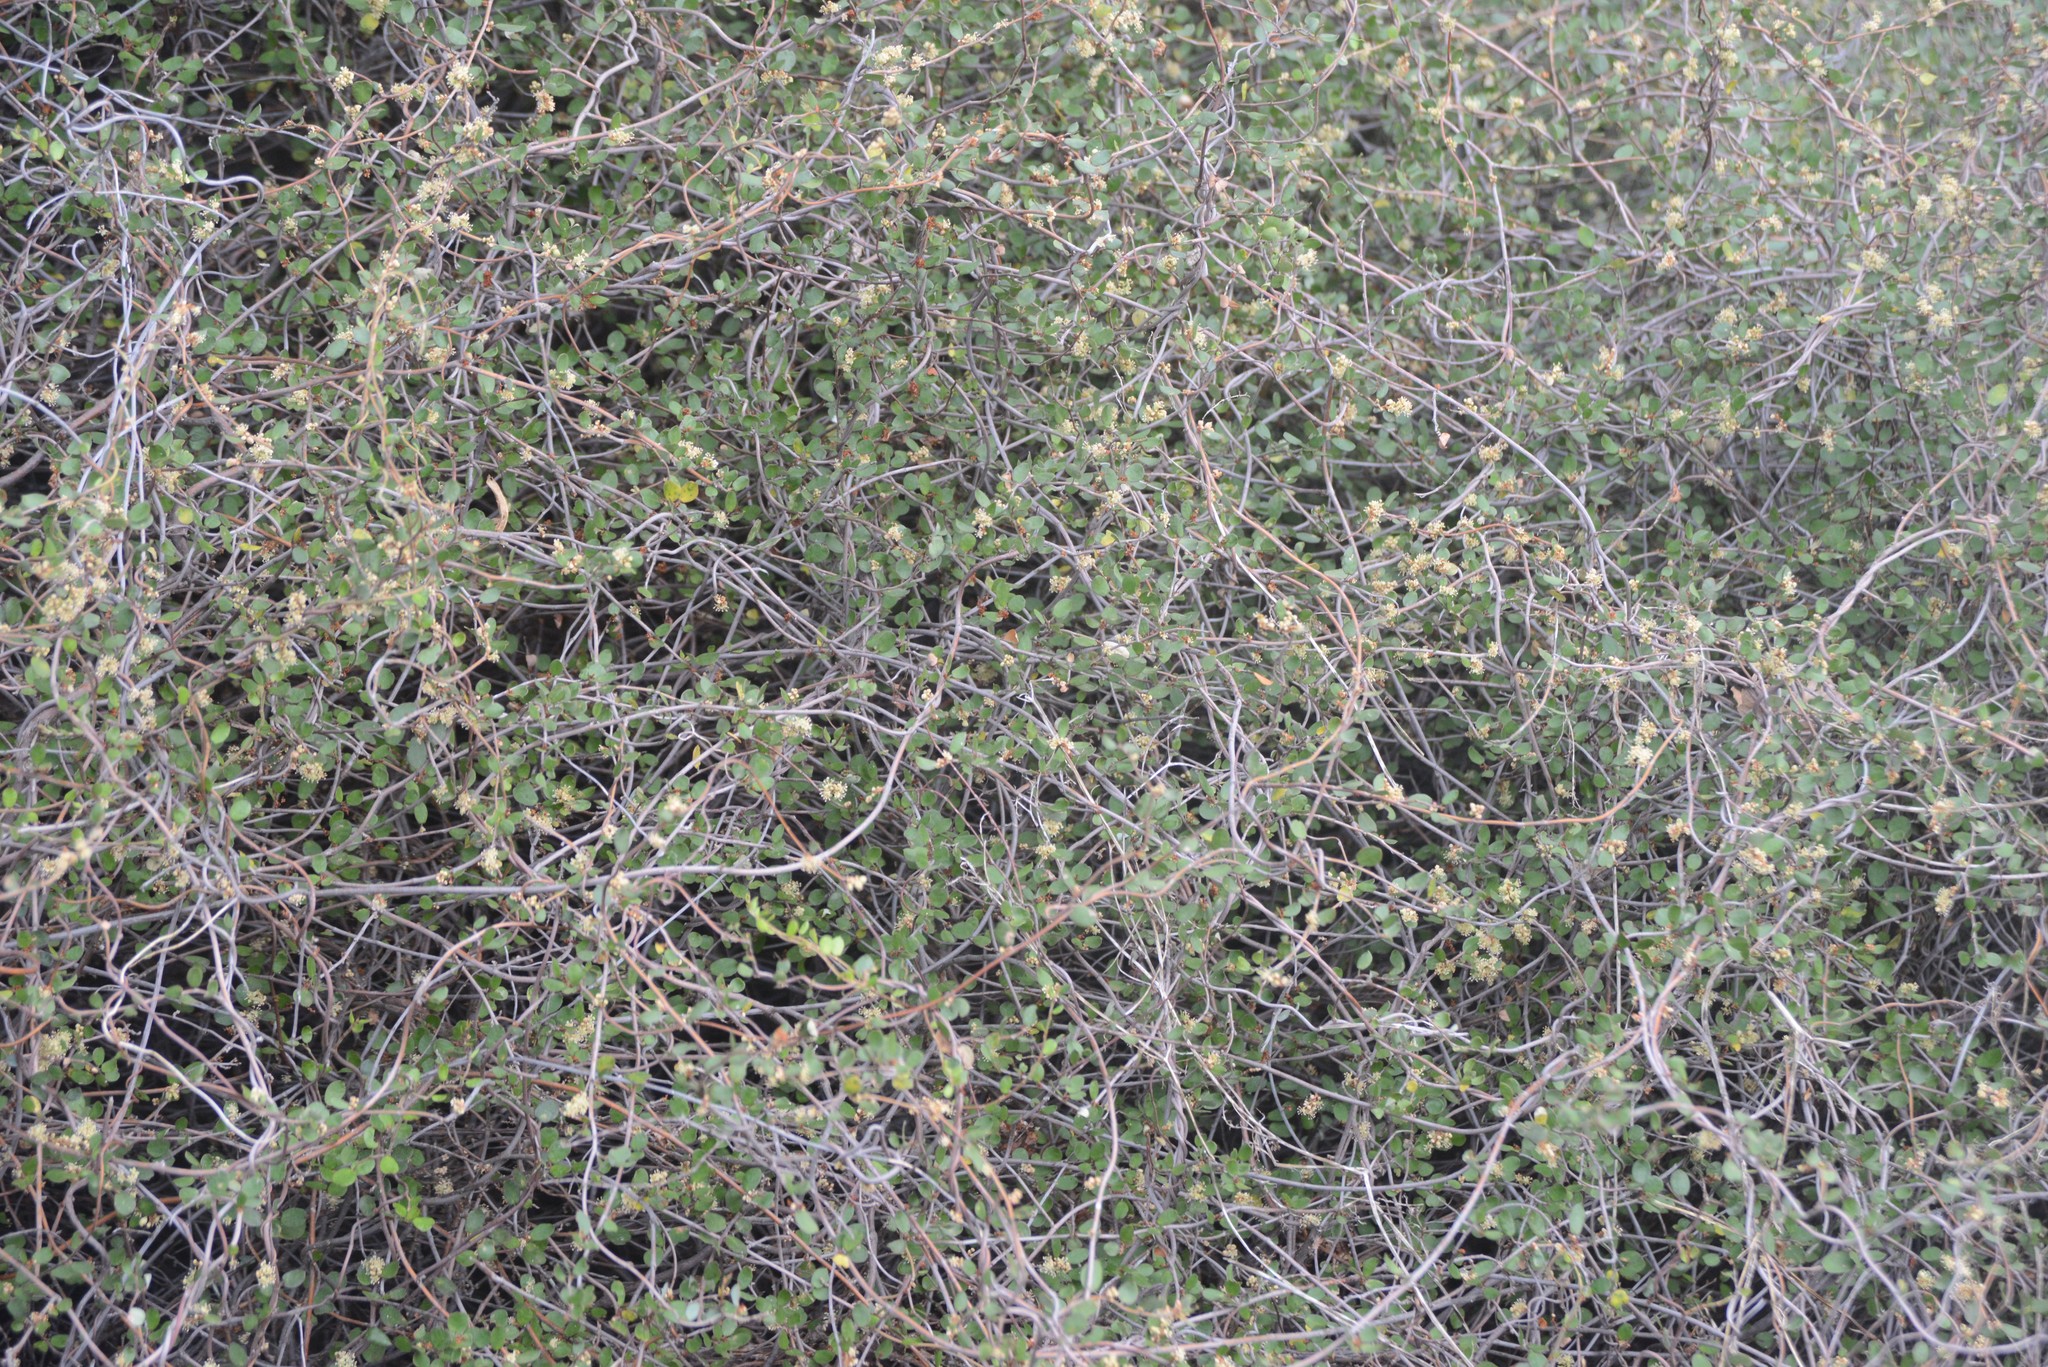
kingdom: Plantae
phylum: Tracheophyta
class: Magnoliopsida
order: Caryophyllales
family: Polygonaceae
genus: Muehlenbeckia
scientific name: Muehlenbeckia complexa
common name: Wireplant
